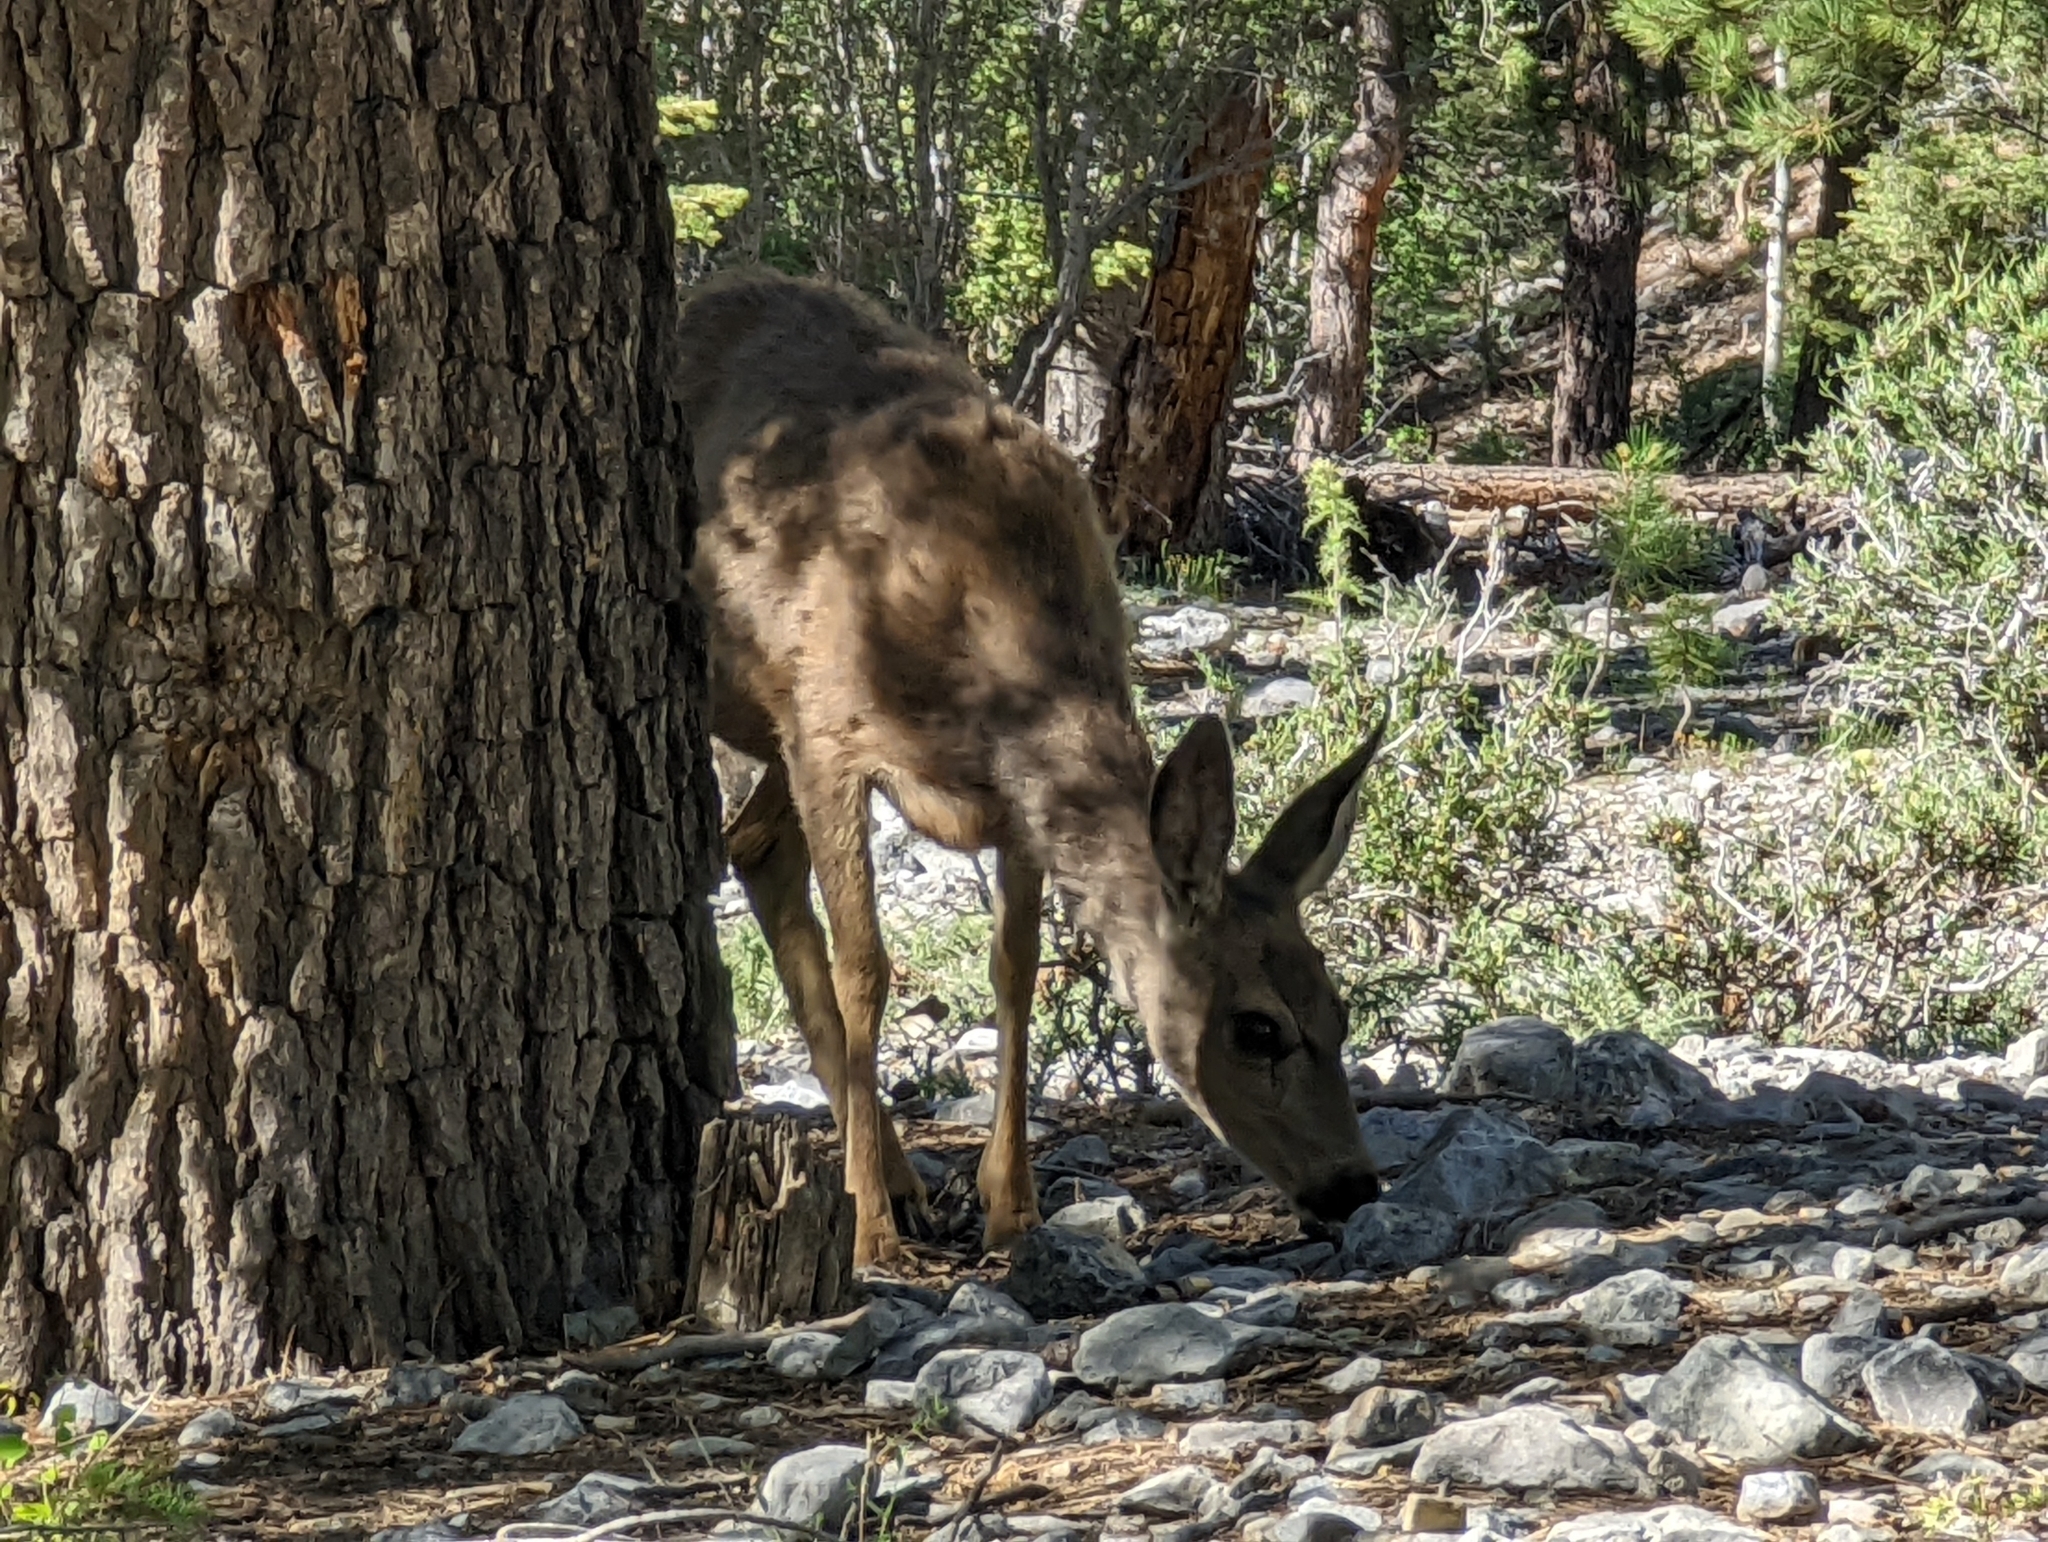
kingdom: Animalia
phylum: Chordata
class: Mammalia
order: Artiodactyla
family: Cervidae
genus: Odocoileus
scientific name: Odocoileus hemionus
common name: Mule deer
